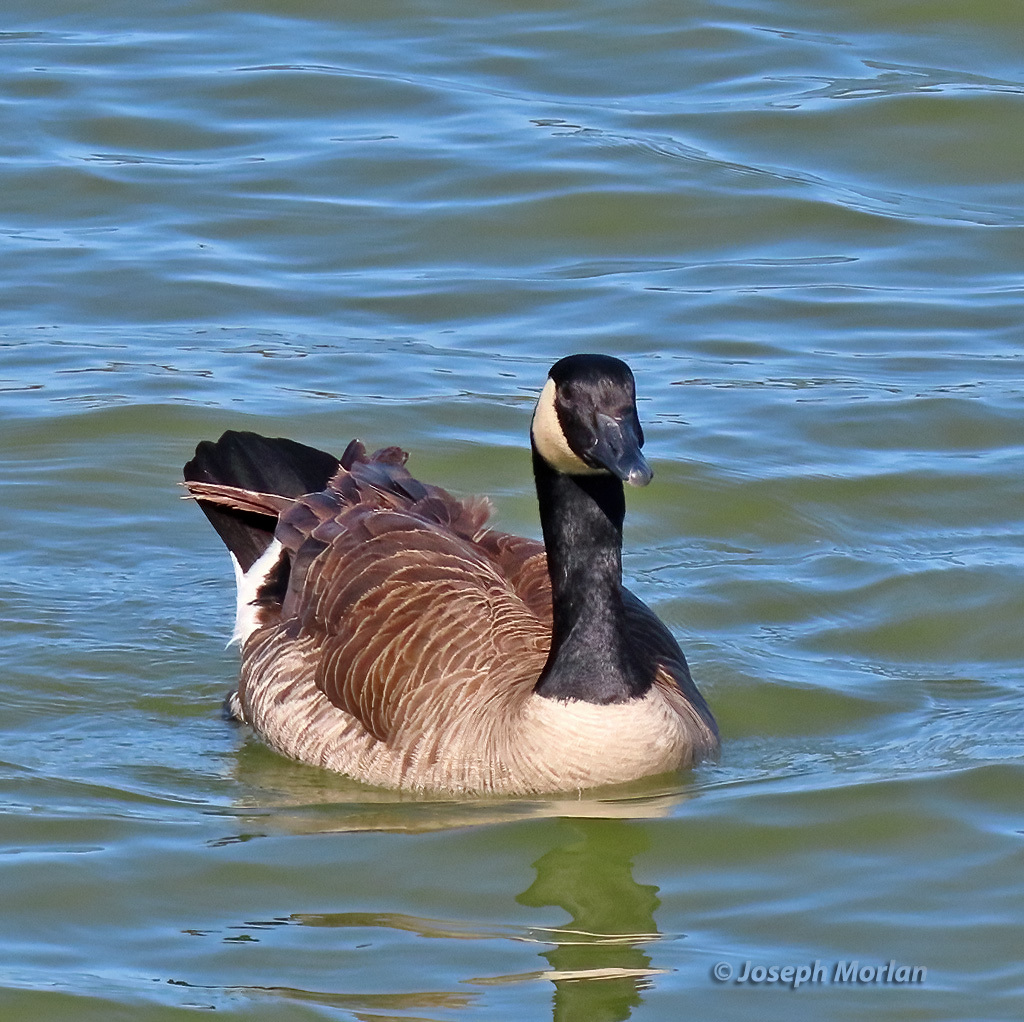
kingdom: Animalia
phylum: Chordata
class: Aves
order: Anseriformes
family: Anatidae
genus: Branta
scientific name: Branta canadensis
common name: Canada goose
